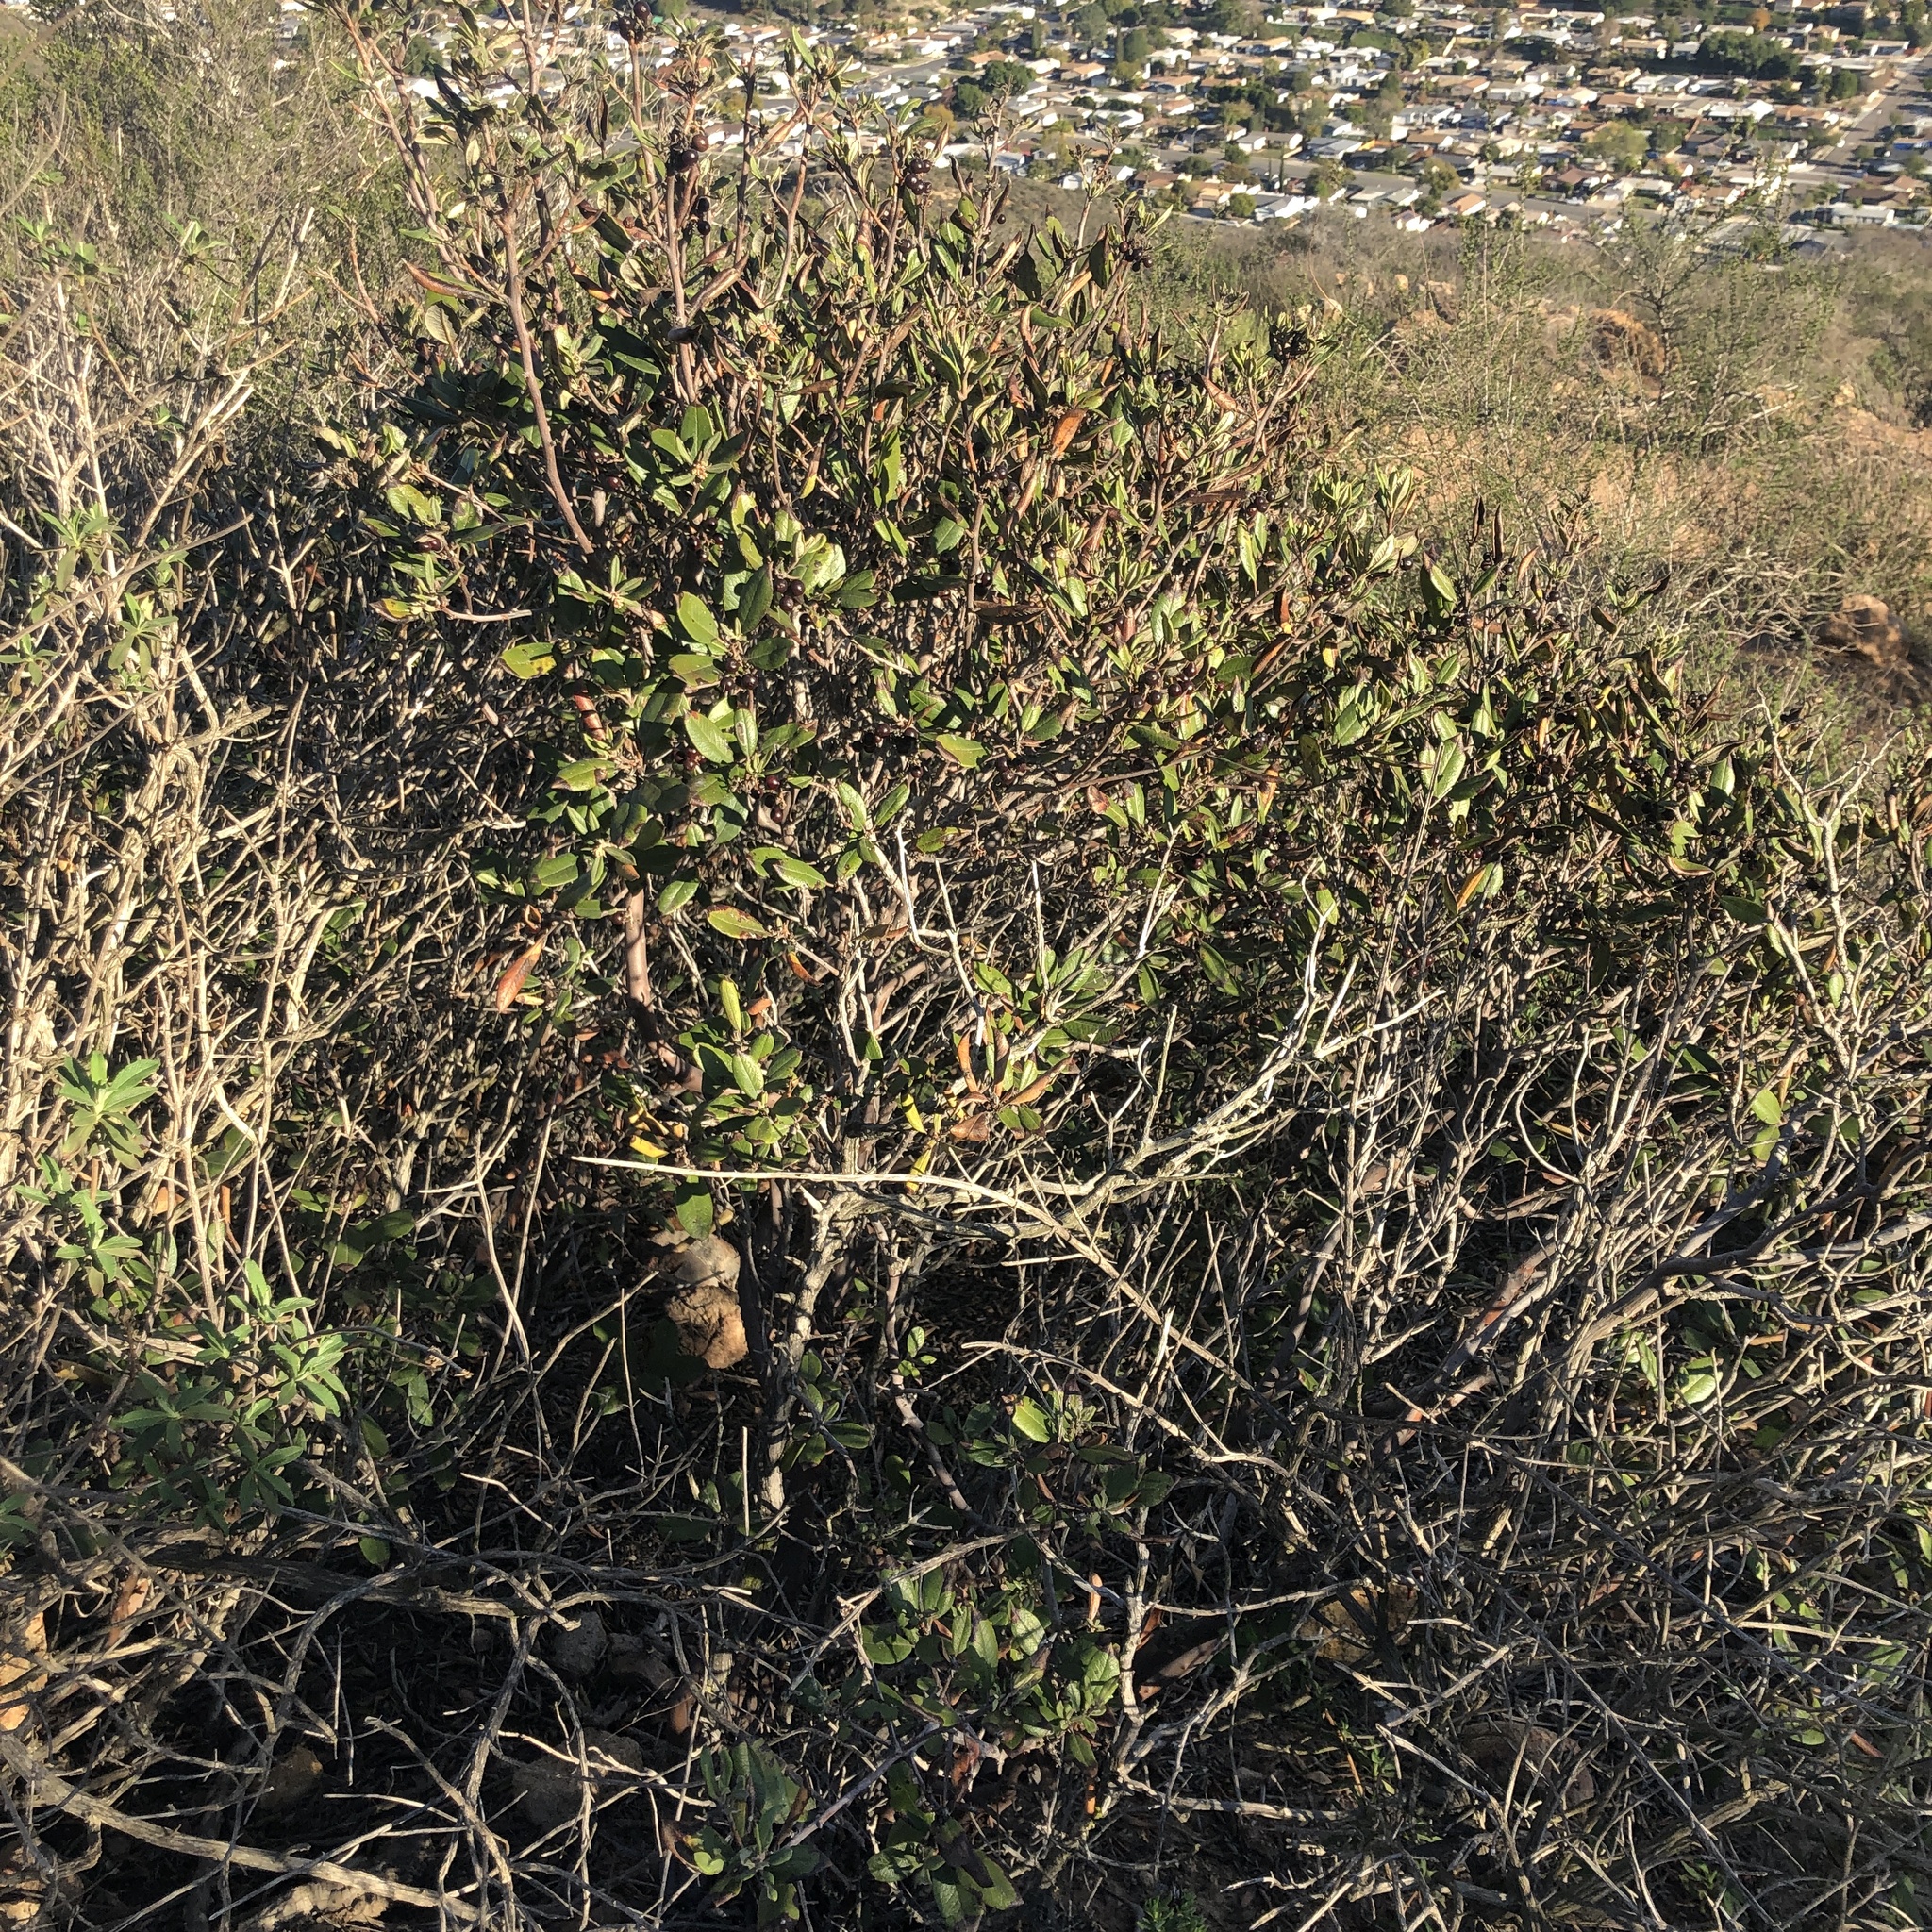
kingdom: Plantae
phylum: Tracheophyta
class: Magnoliopsida
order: Ericales
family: Ericaceae
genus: Arctostaphylos
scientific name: Arctostaphylos bicolor
